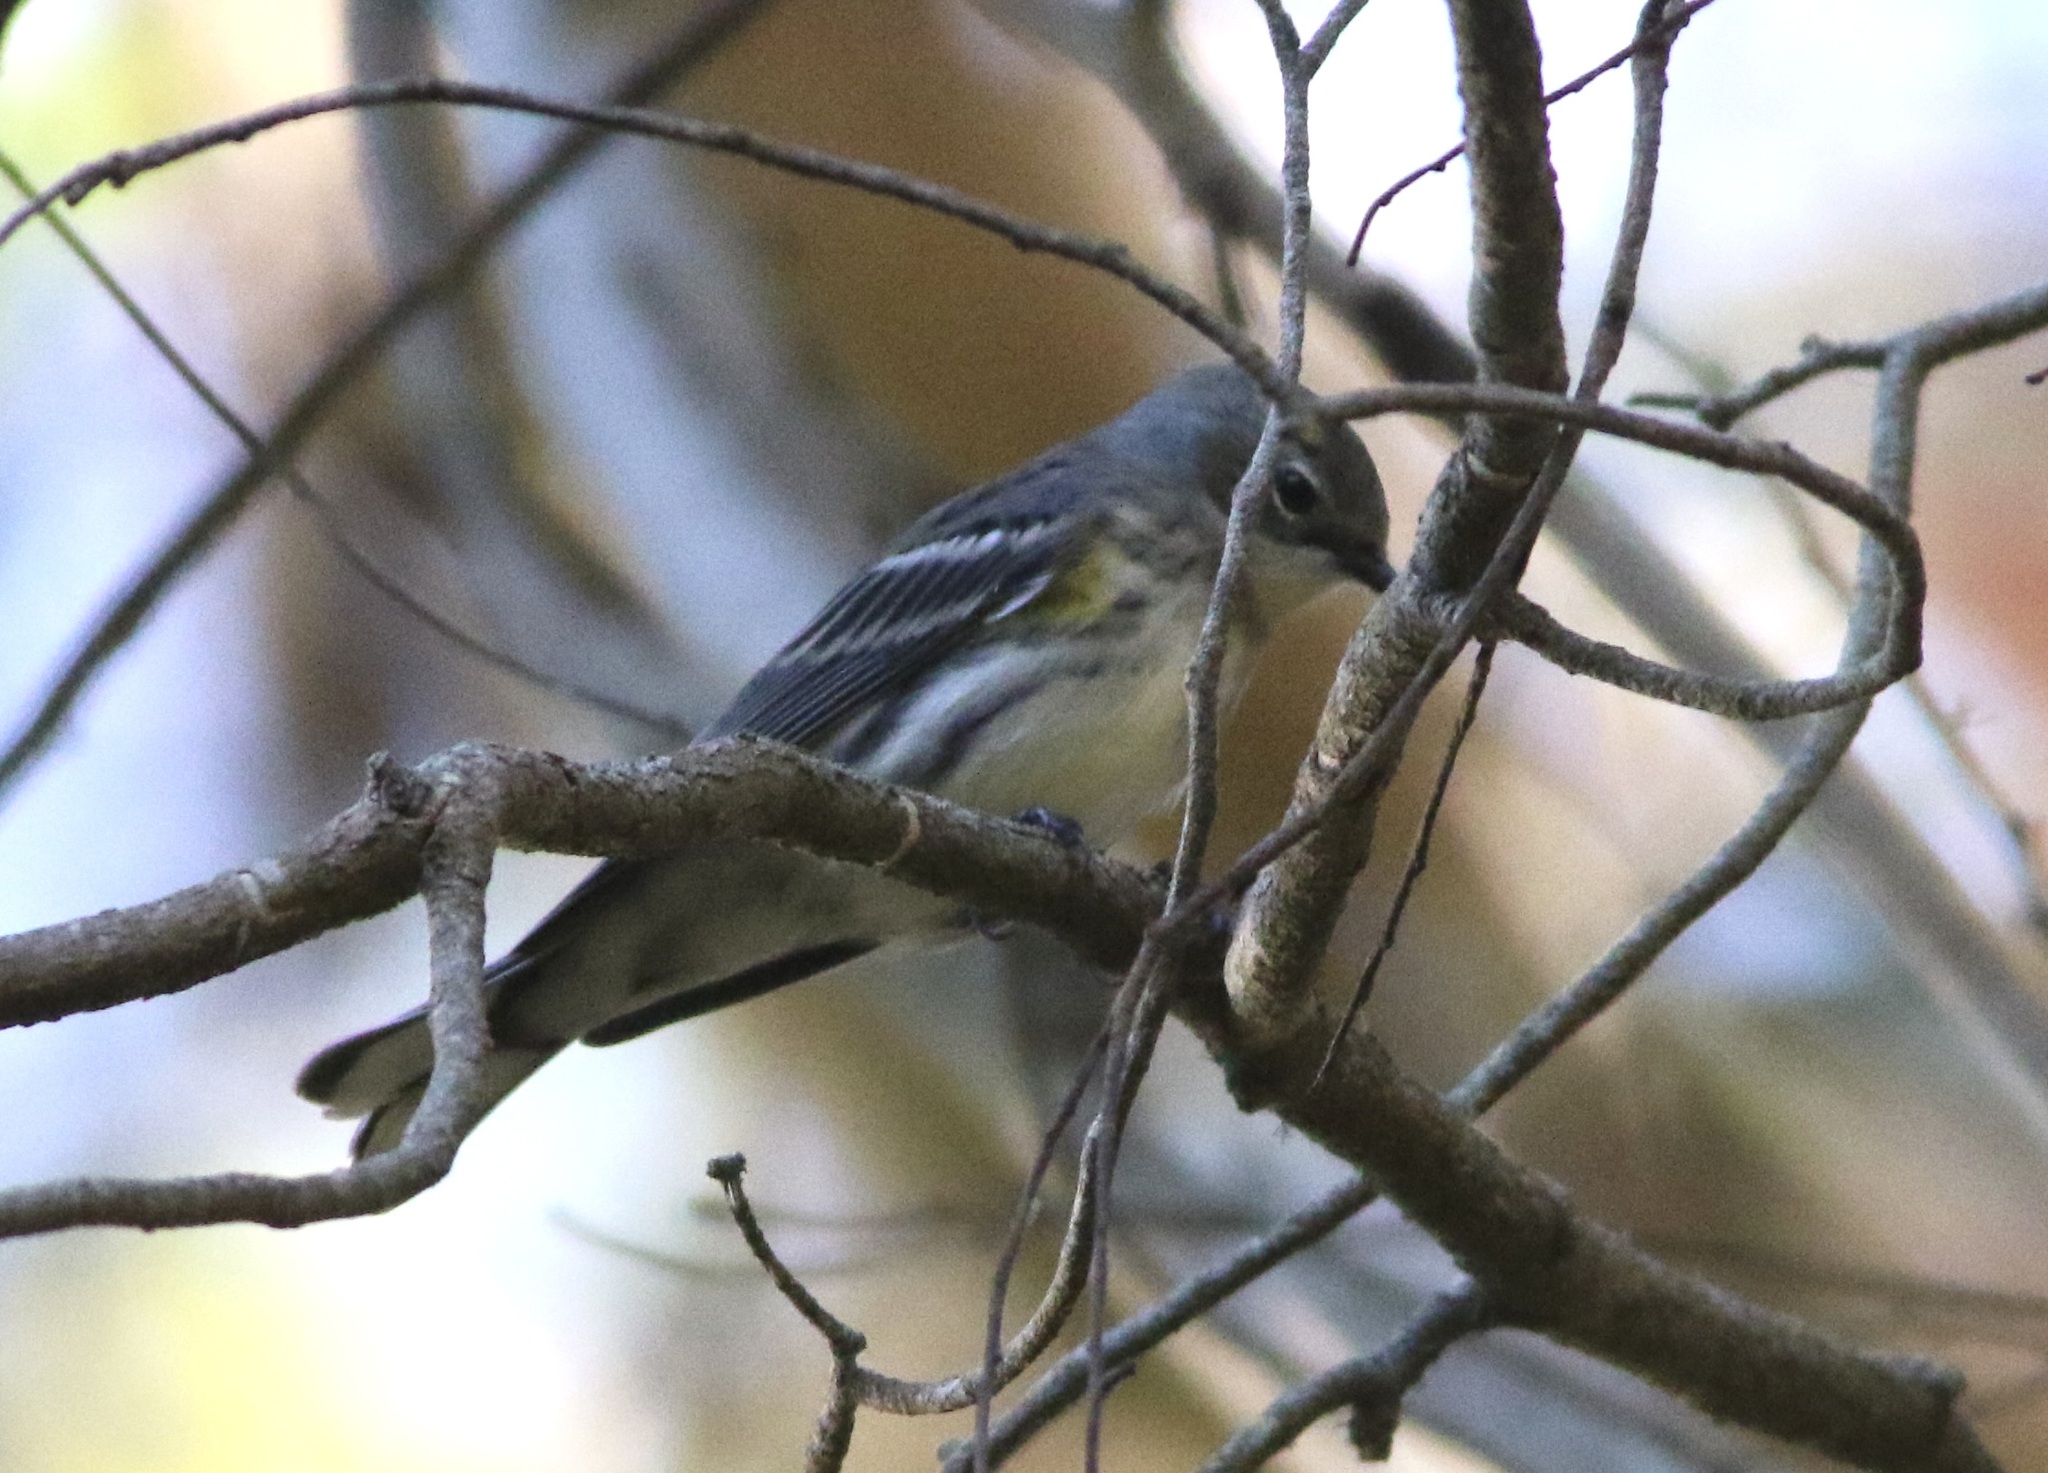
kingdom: Animalia
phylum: Chordata
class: Aves
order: Passeriformes
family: Parulidae
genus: Setophaga
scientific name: Setophaga coronata
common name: Myrtle warbler
